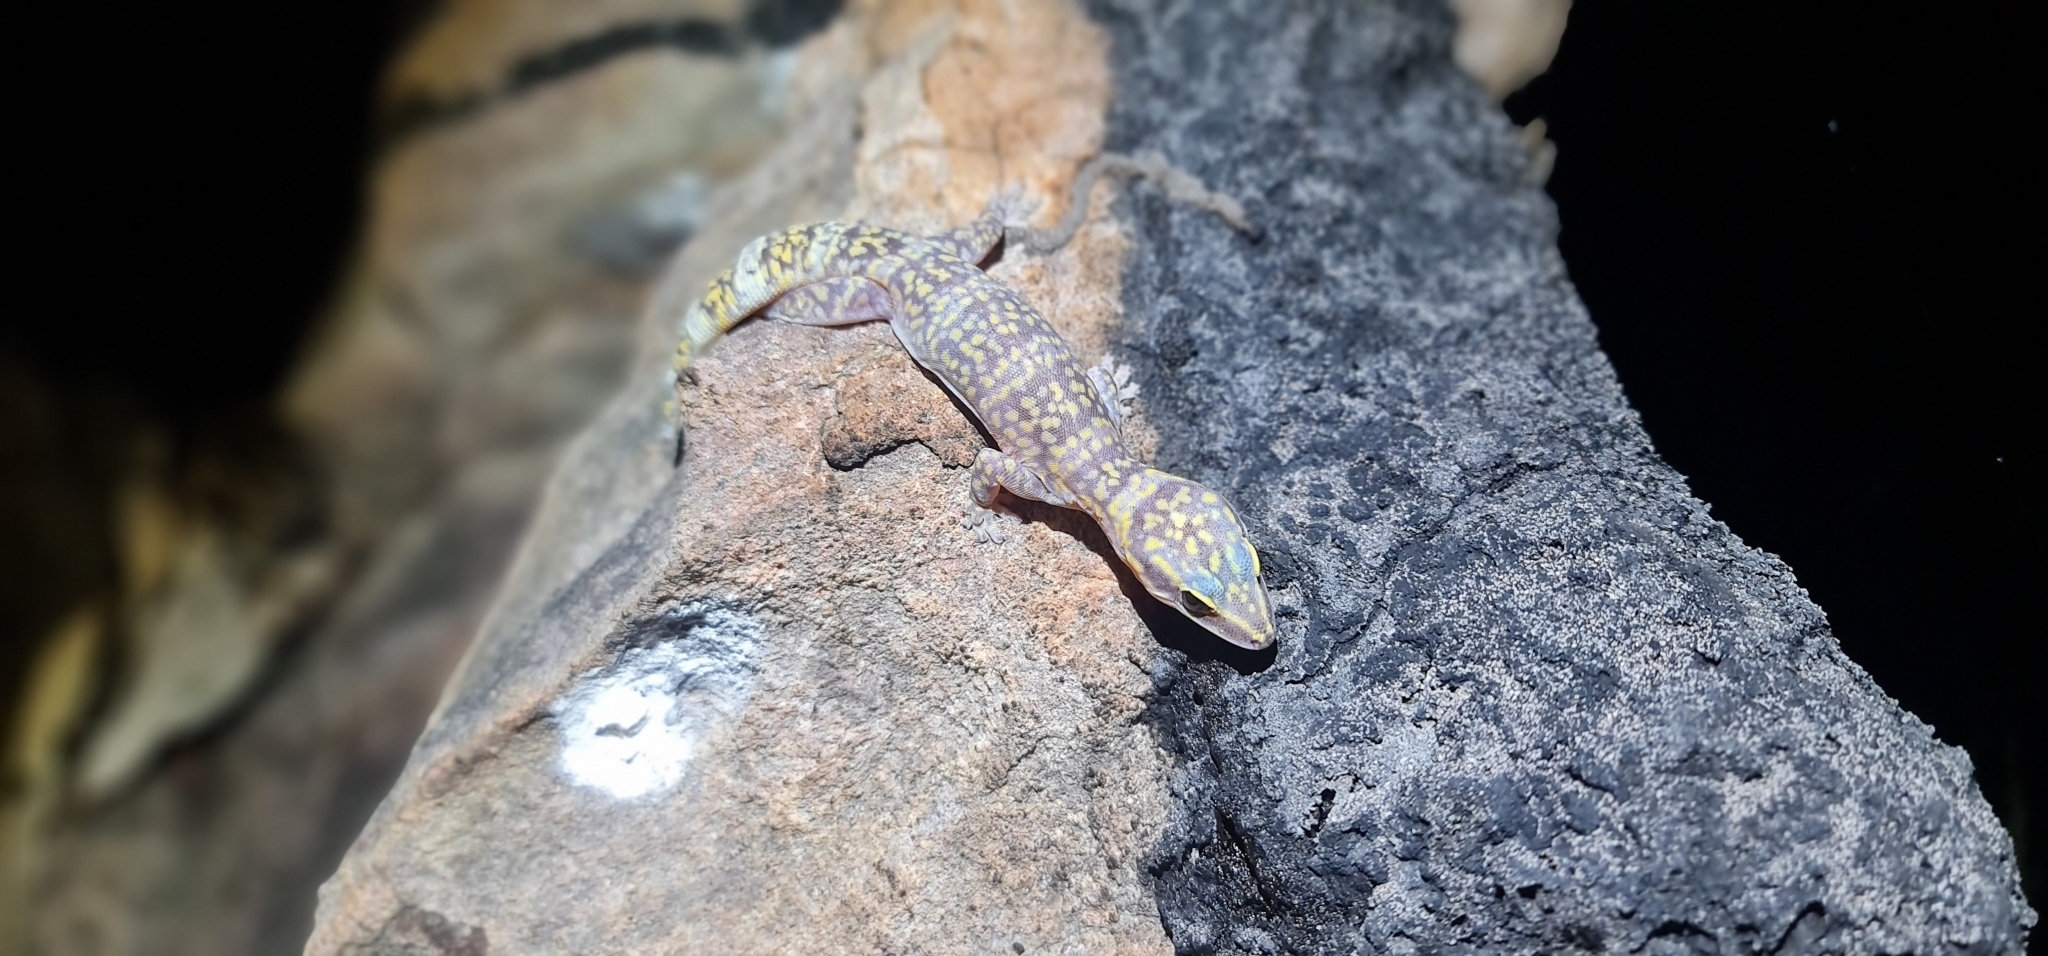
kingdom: Animalia
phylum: Chordata
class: Squamata
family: Diplodactylidae
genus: Oedura
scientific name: Oedura marmorata
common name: Marbled velvet gecko
